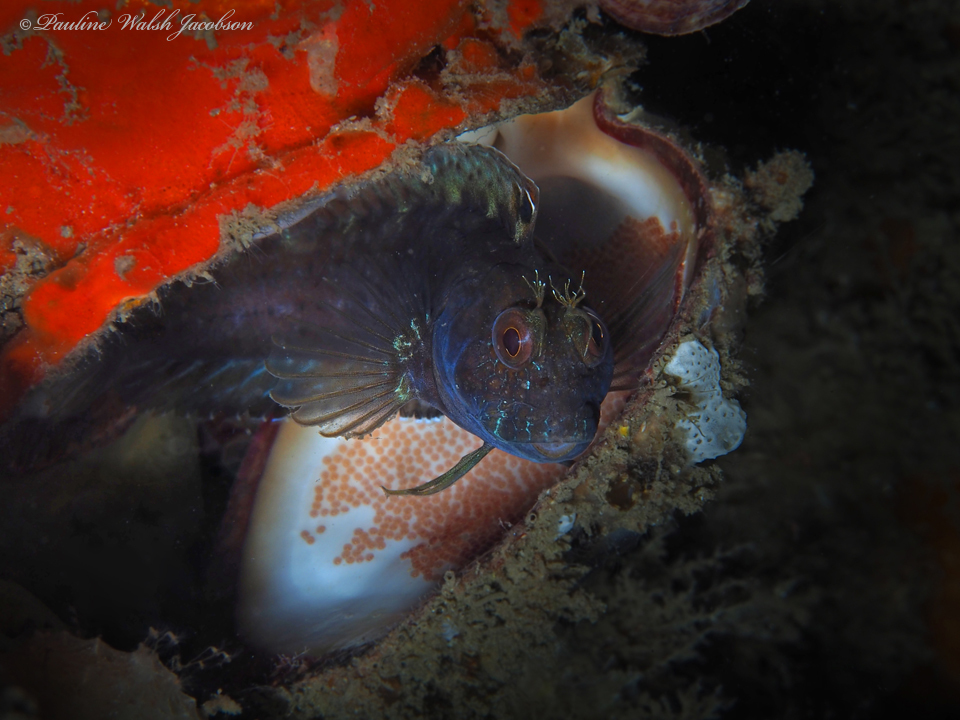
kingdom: Animalia
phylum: Chordata
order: Perciformes
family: Blenniidae
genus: Parablennius
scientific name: Parablennius marmoreus
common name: Seaweed blenny
